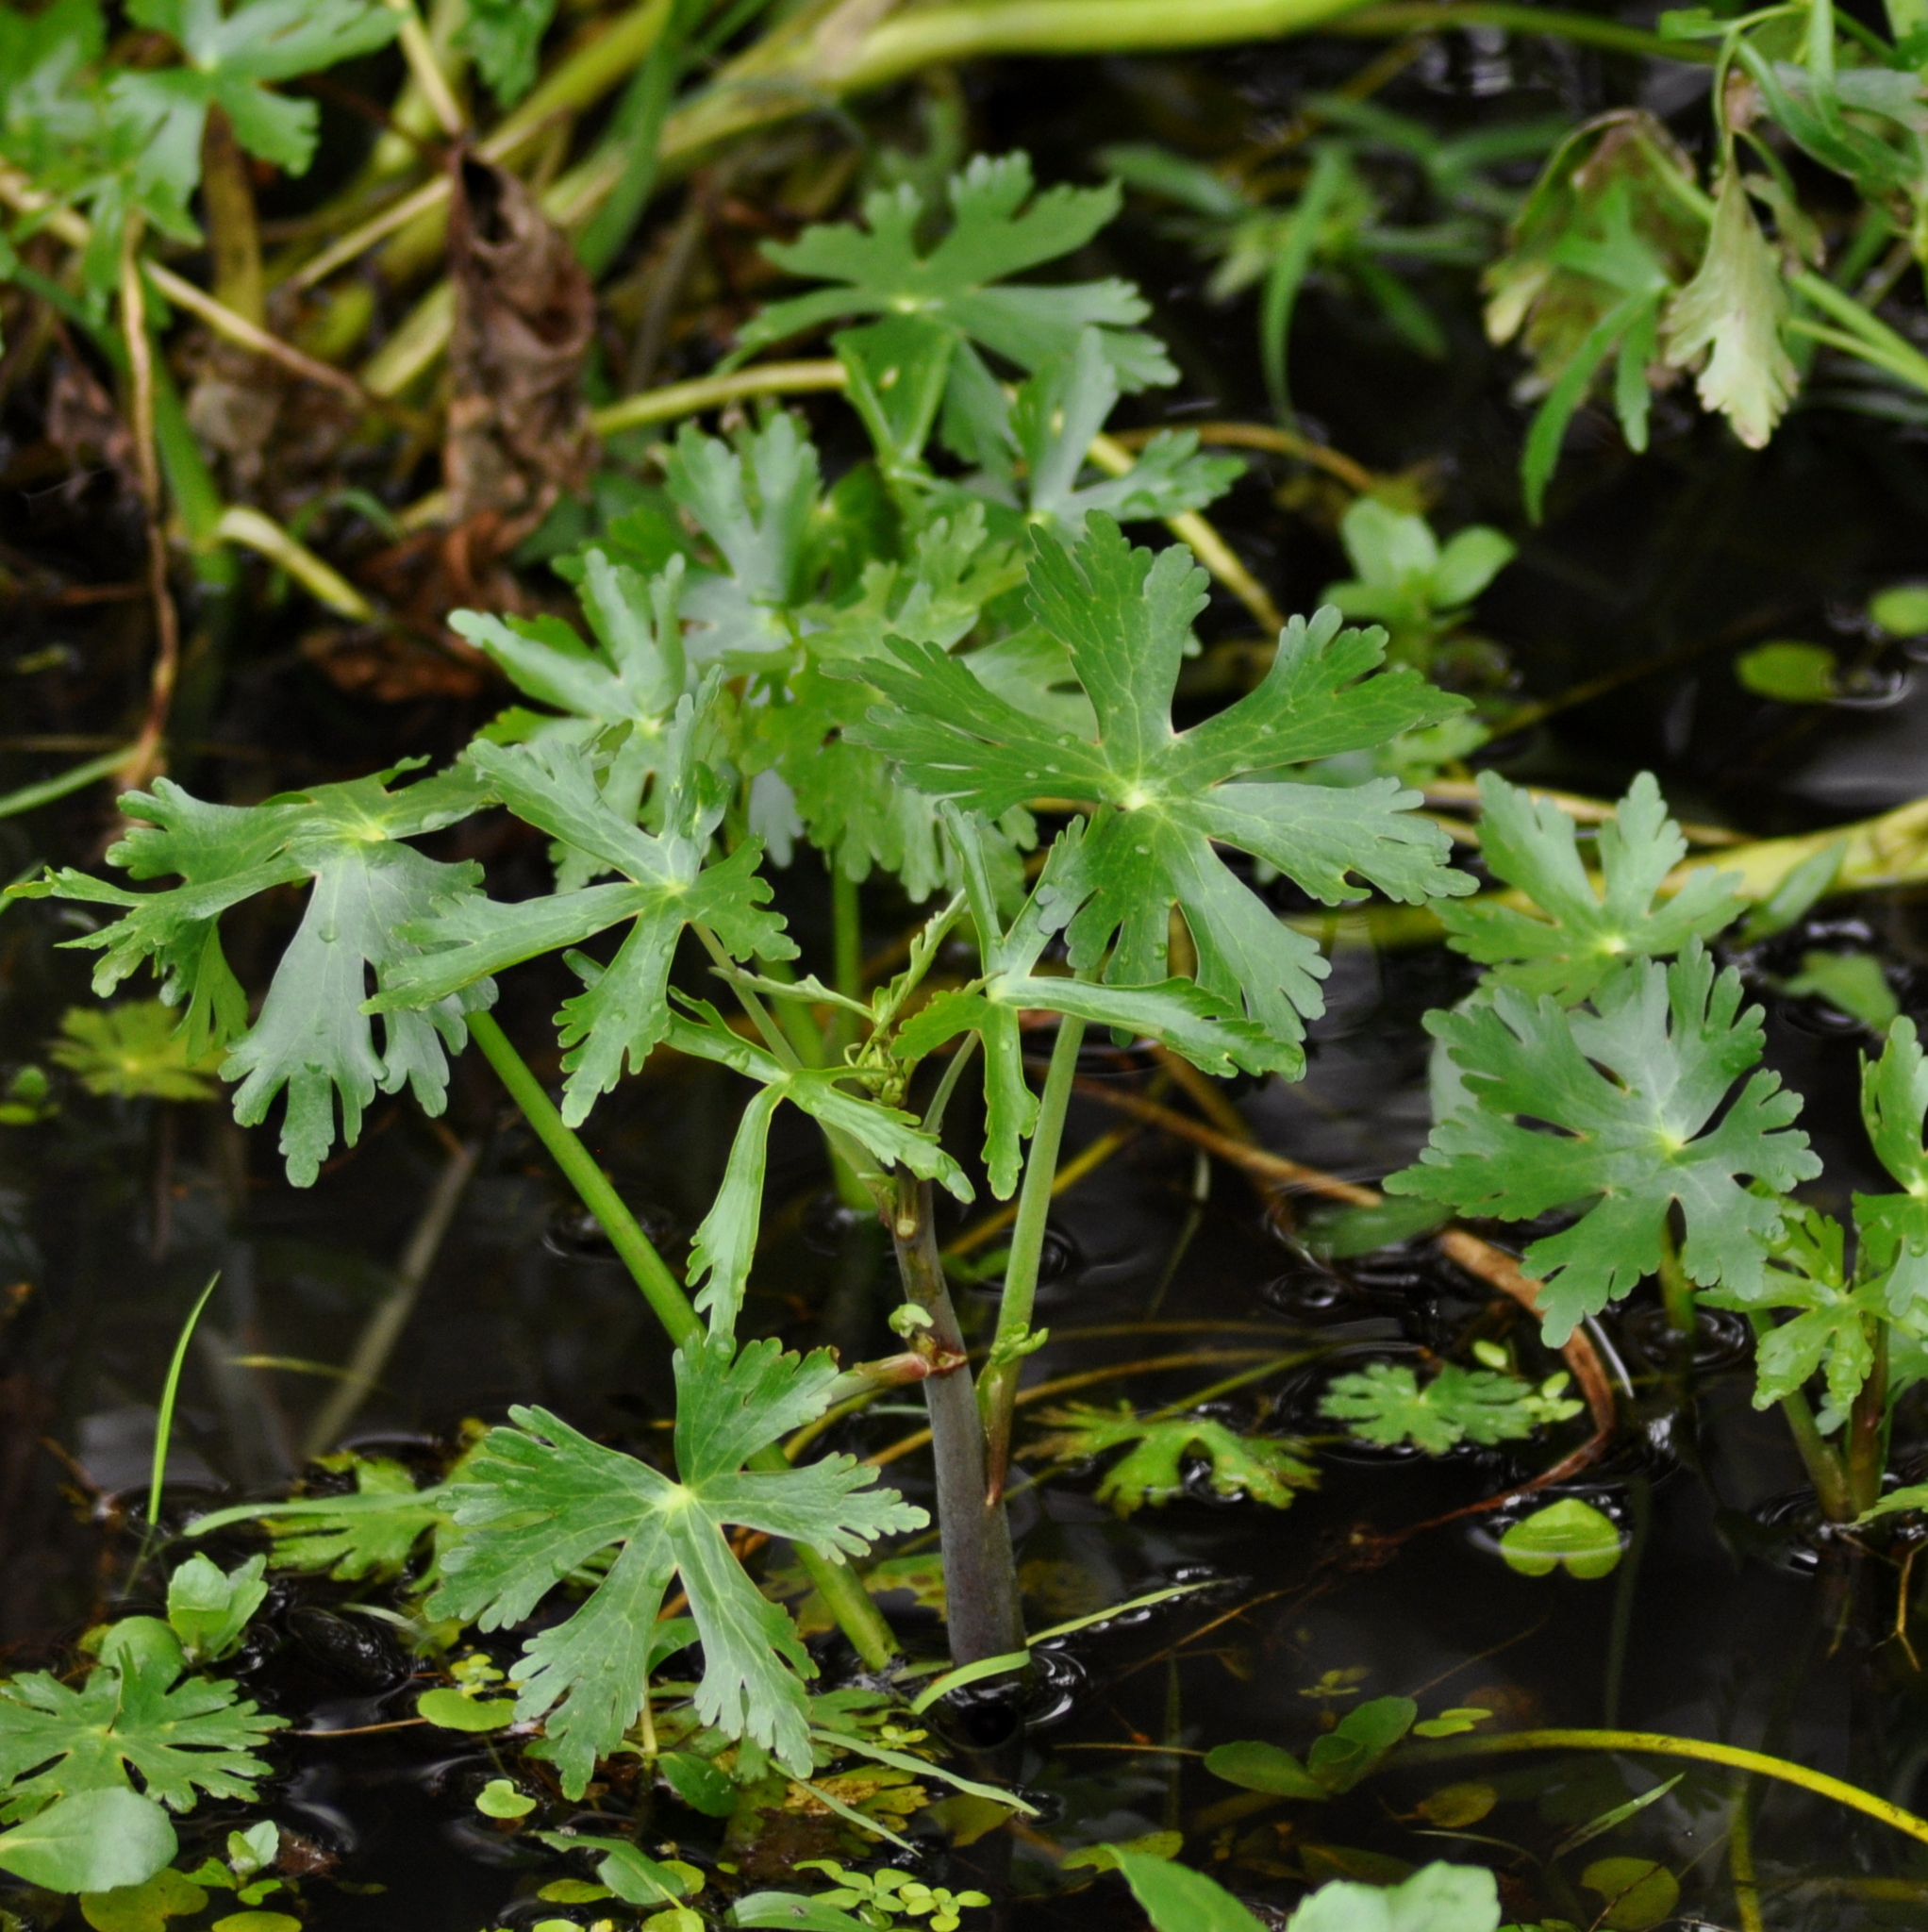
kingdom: Plantae
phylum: Tracheophyta
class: Magnoliopsida
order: Ranunculales
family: Ranunculaceae
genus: Ranunculus
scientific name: Ranunculus apiifolius
